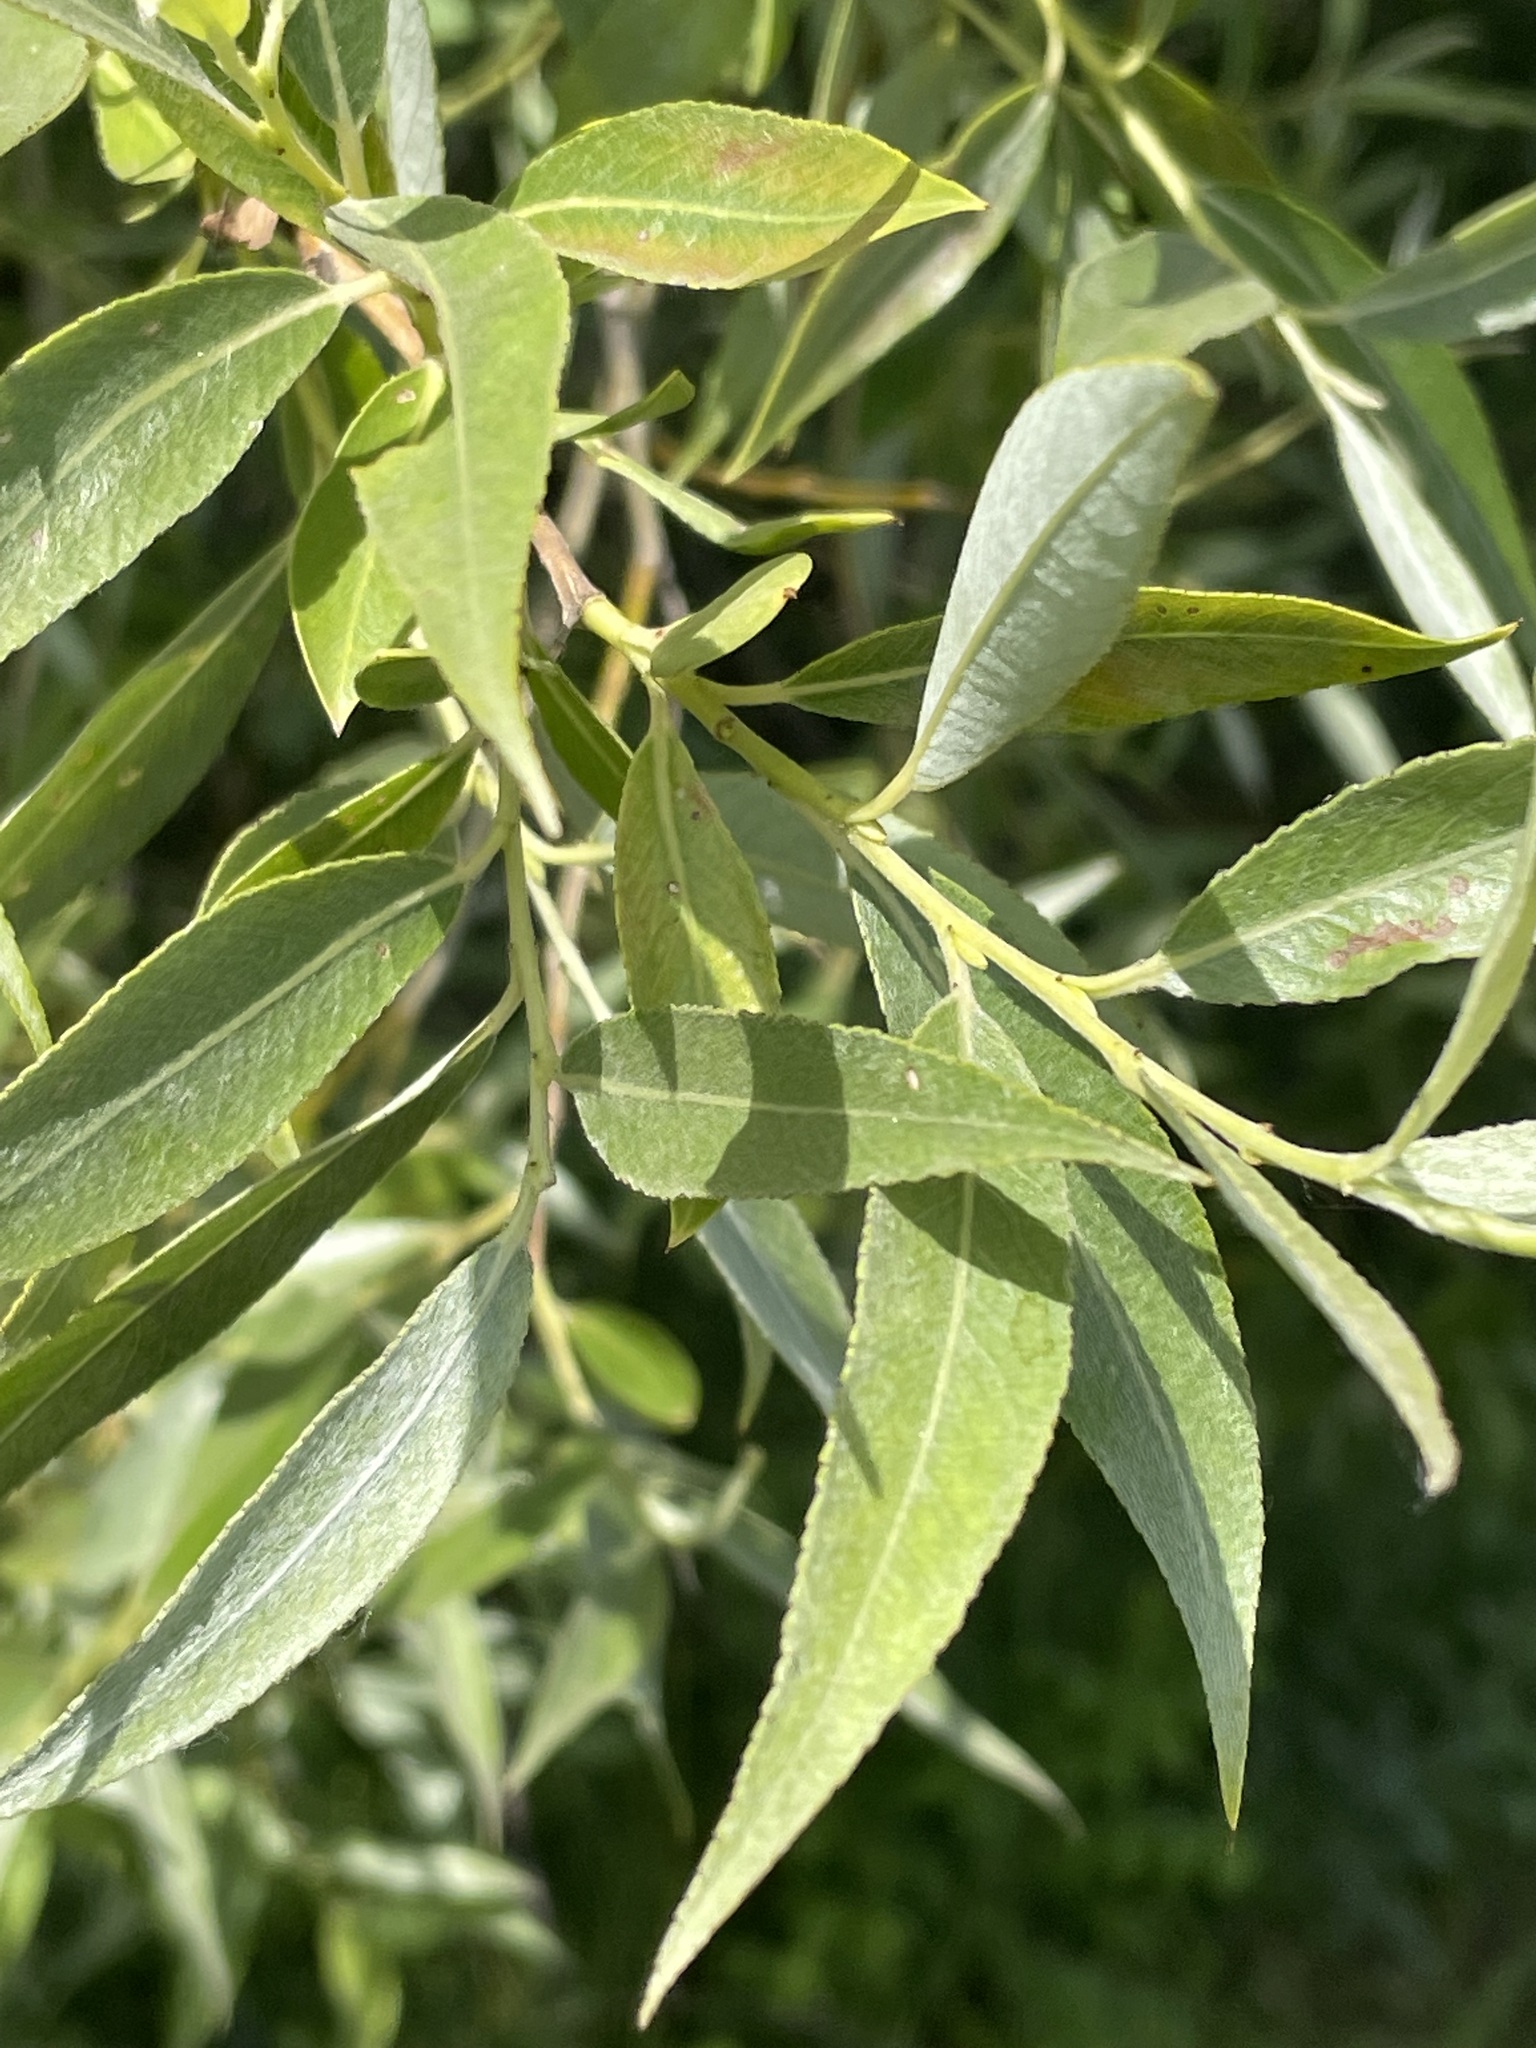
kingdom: Plantae
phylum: Tracheophyta
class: Magnoliopsida
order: Malpighiales
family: Salicaceae
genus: Salix
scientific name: Salix alba
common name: White willow
